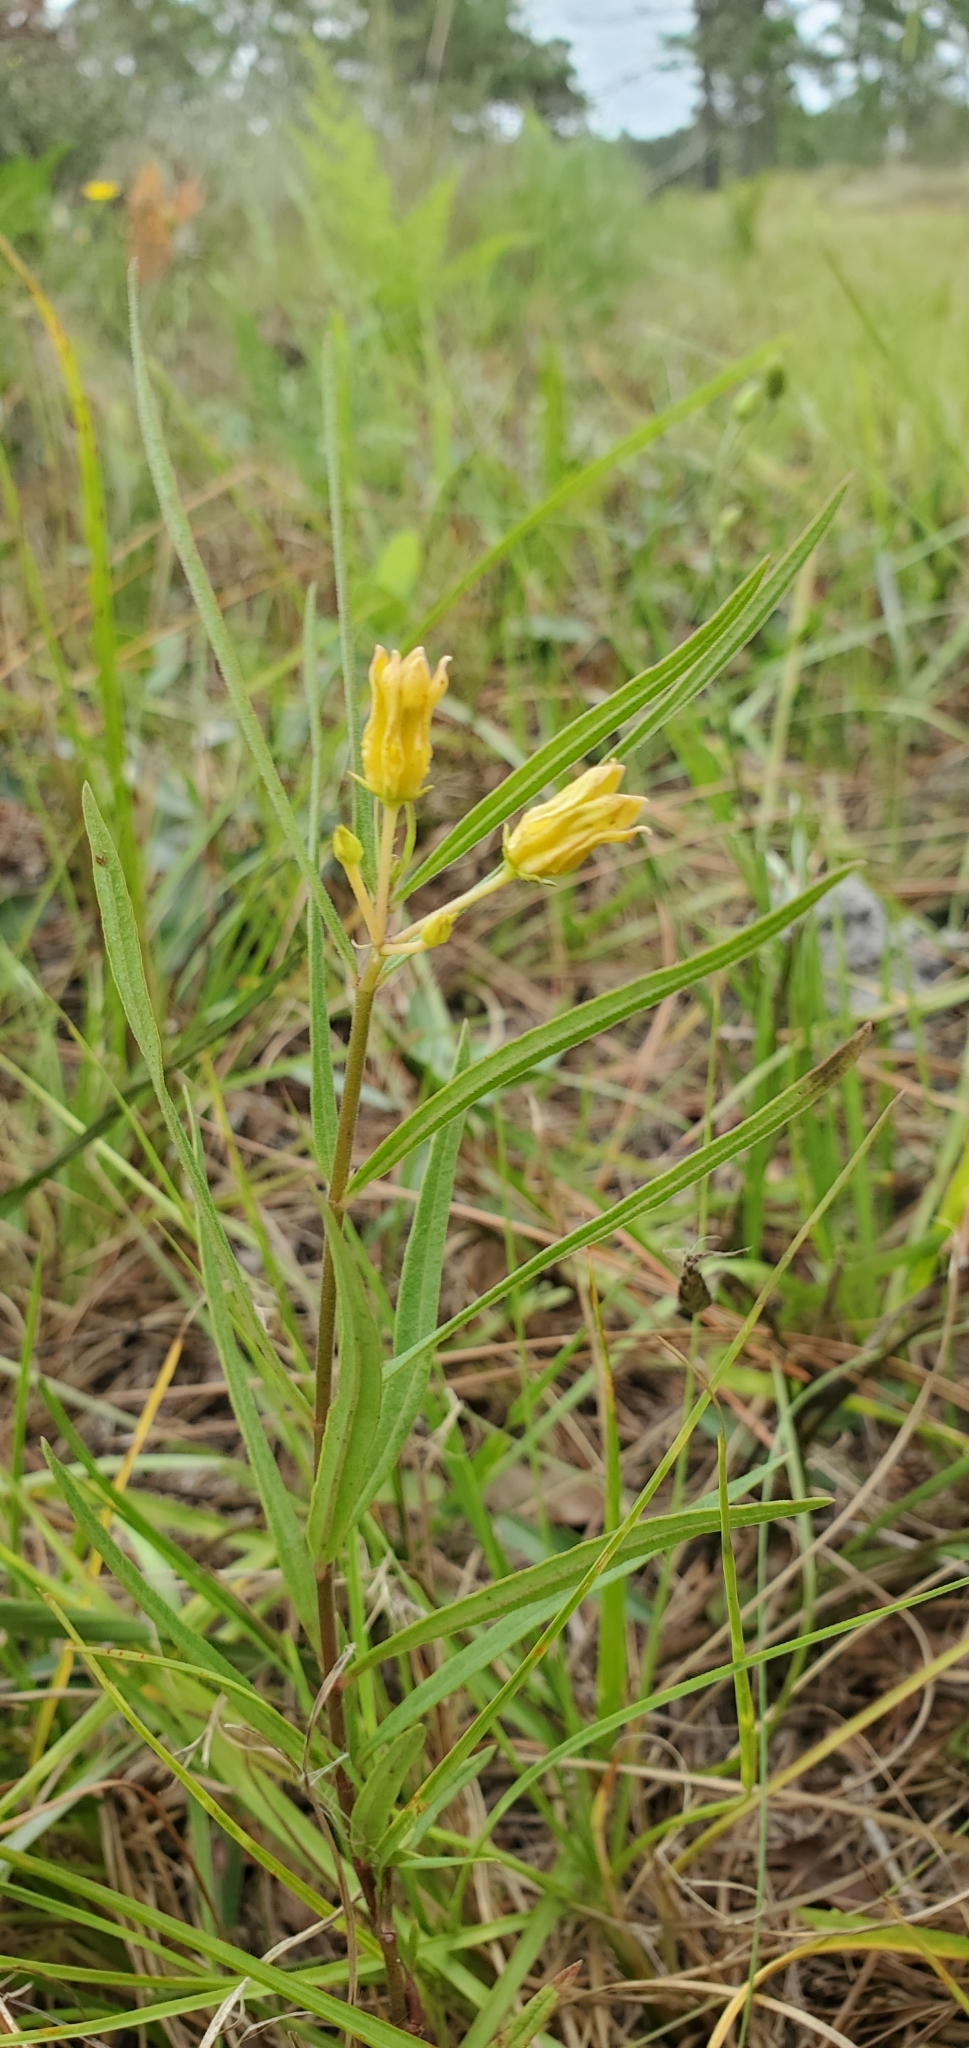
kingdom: Plantae
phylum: Tracheophyta
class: Magnoliopsida
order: Gentianales
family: Apocynaceae
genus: Asclepias
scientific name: Asclepias pedicellata
